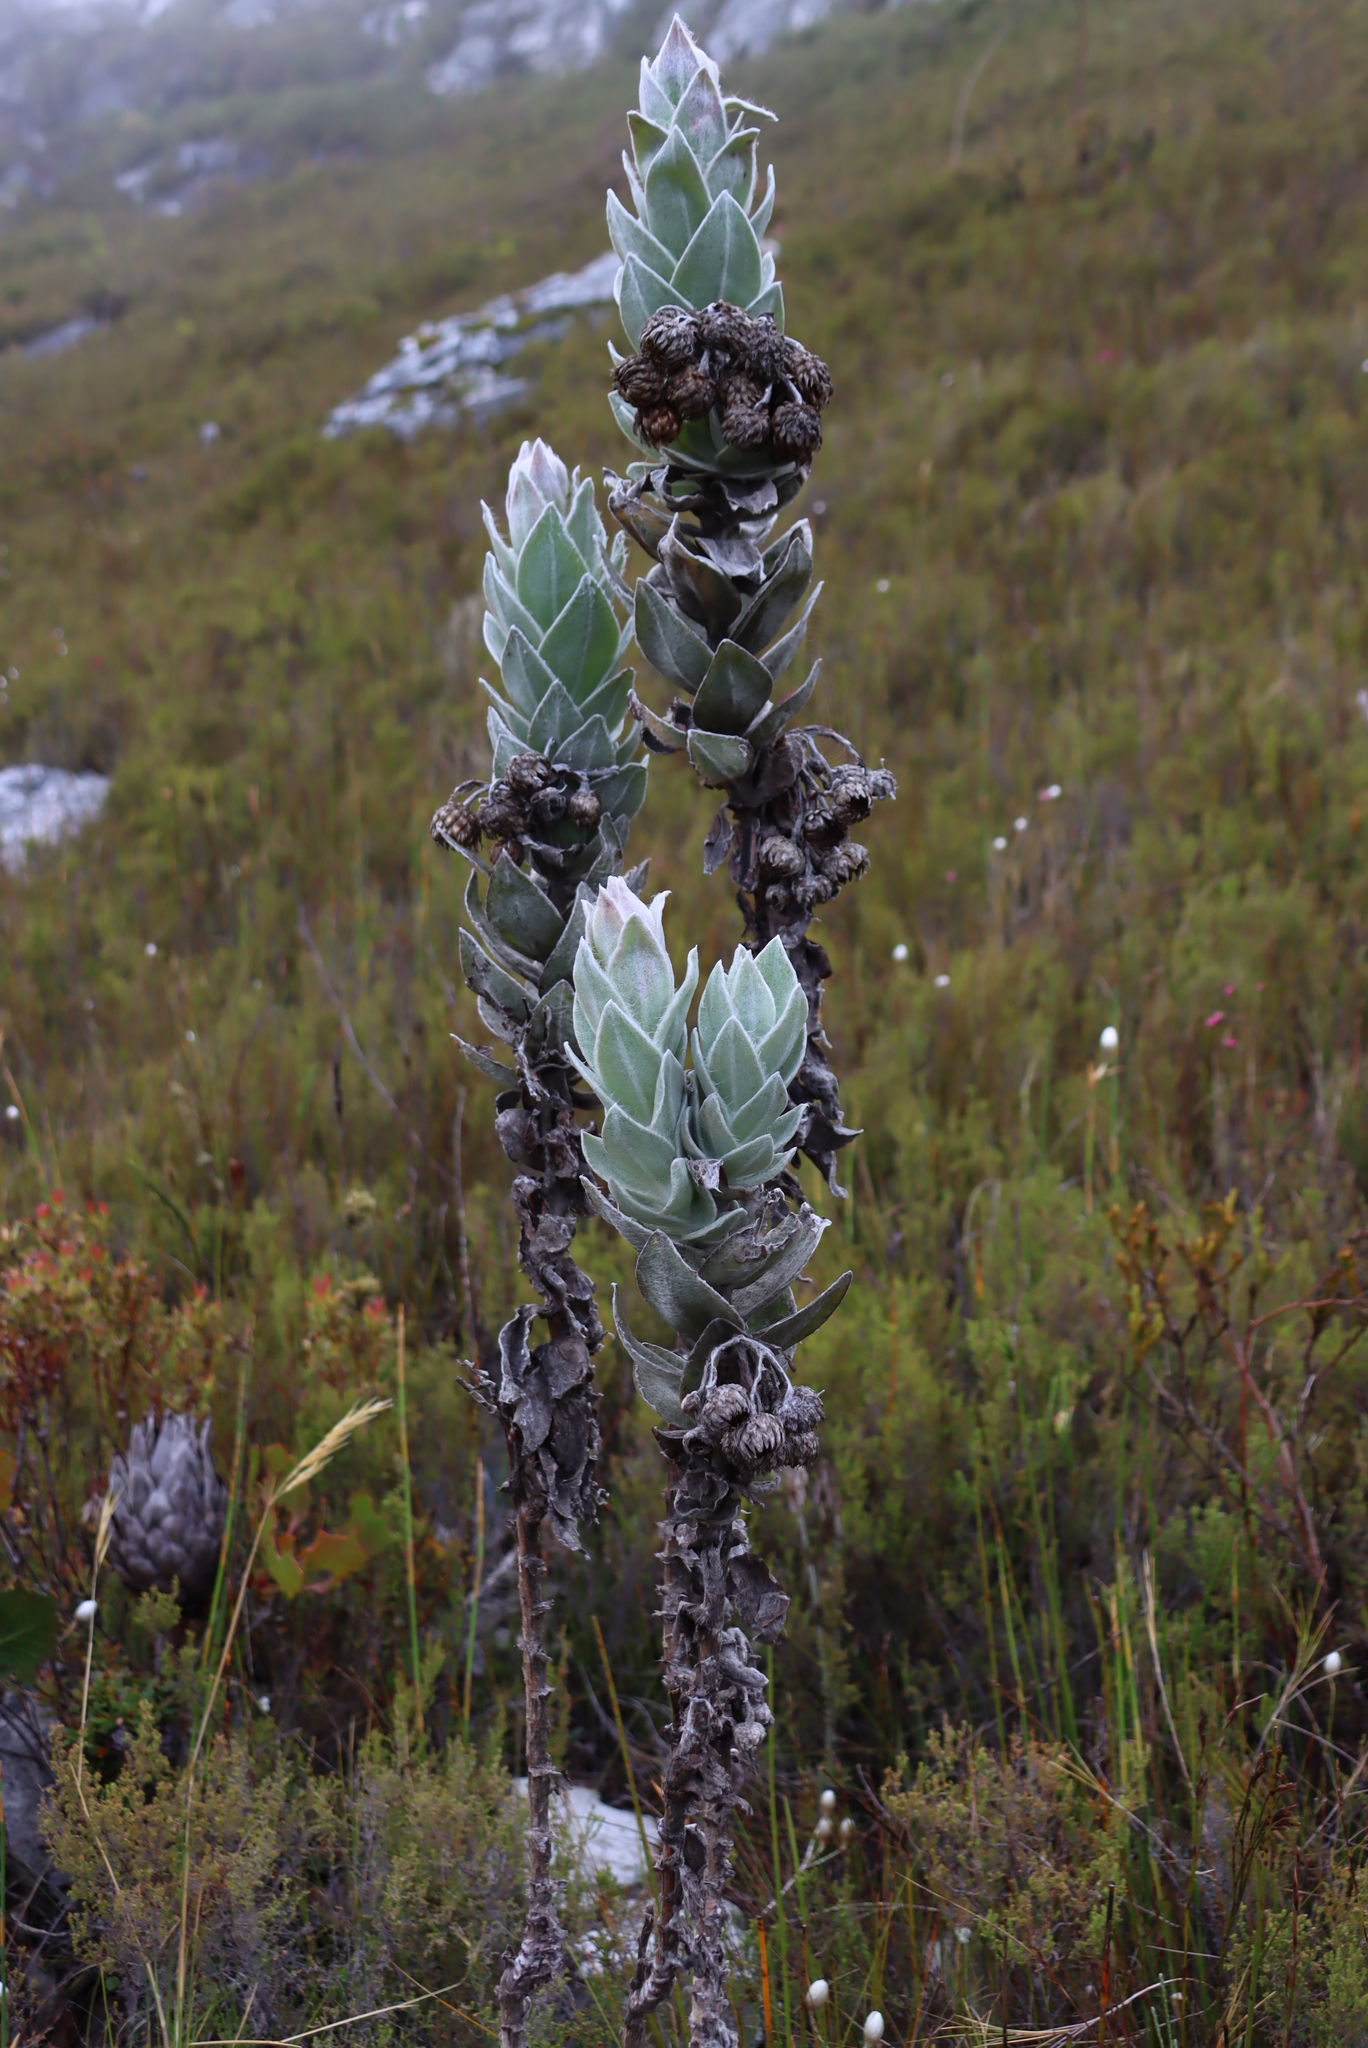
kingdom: Plantae
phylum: Tracheophyta
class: Magnoliopsida
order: Asterales
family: Asteraceae
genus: Syncarpha
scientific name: Syncarpha eximia
